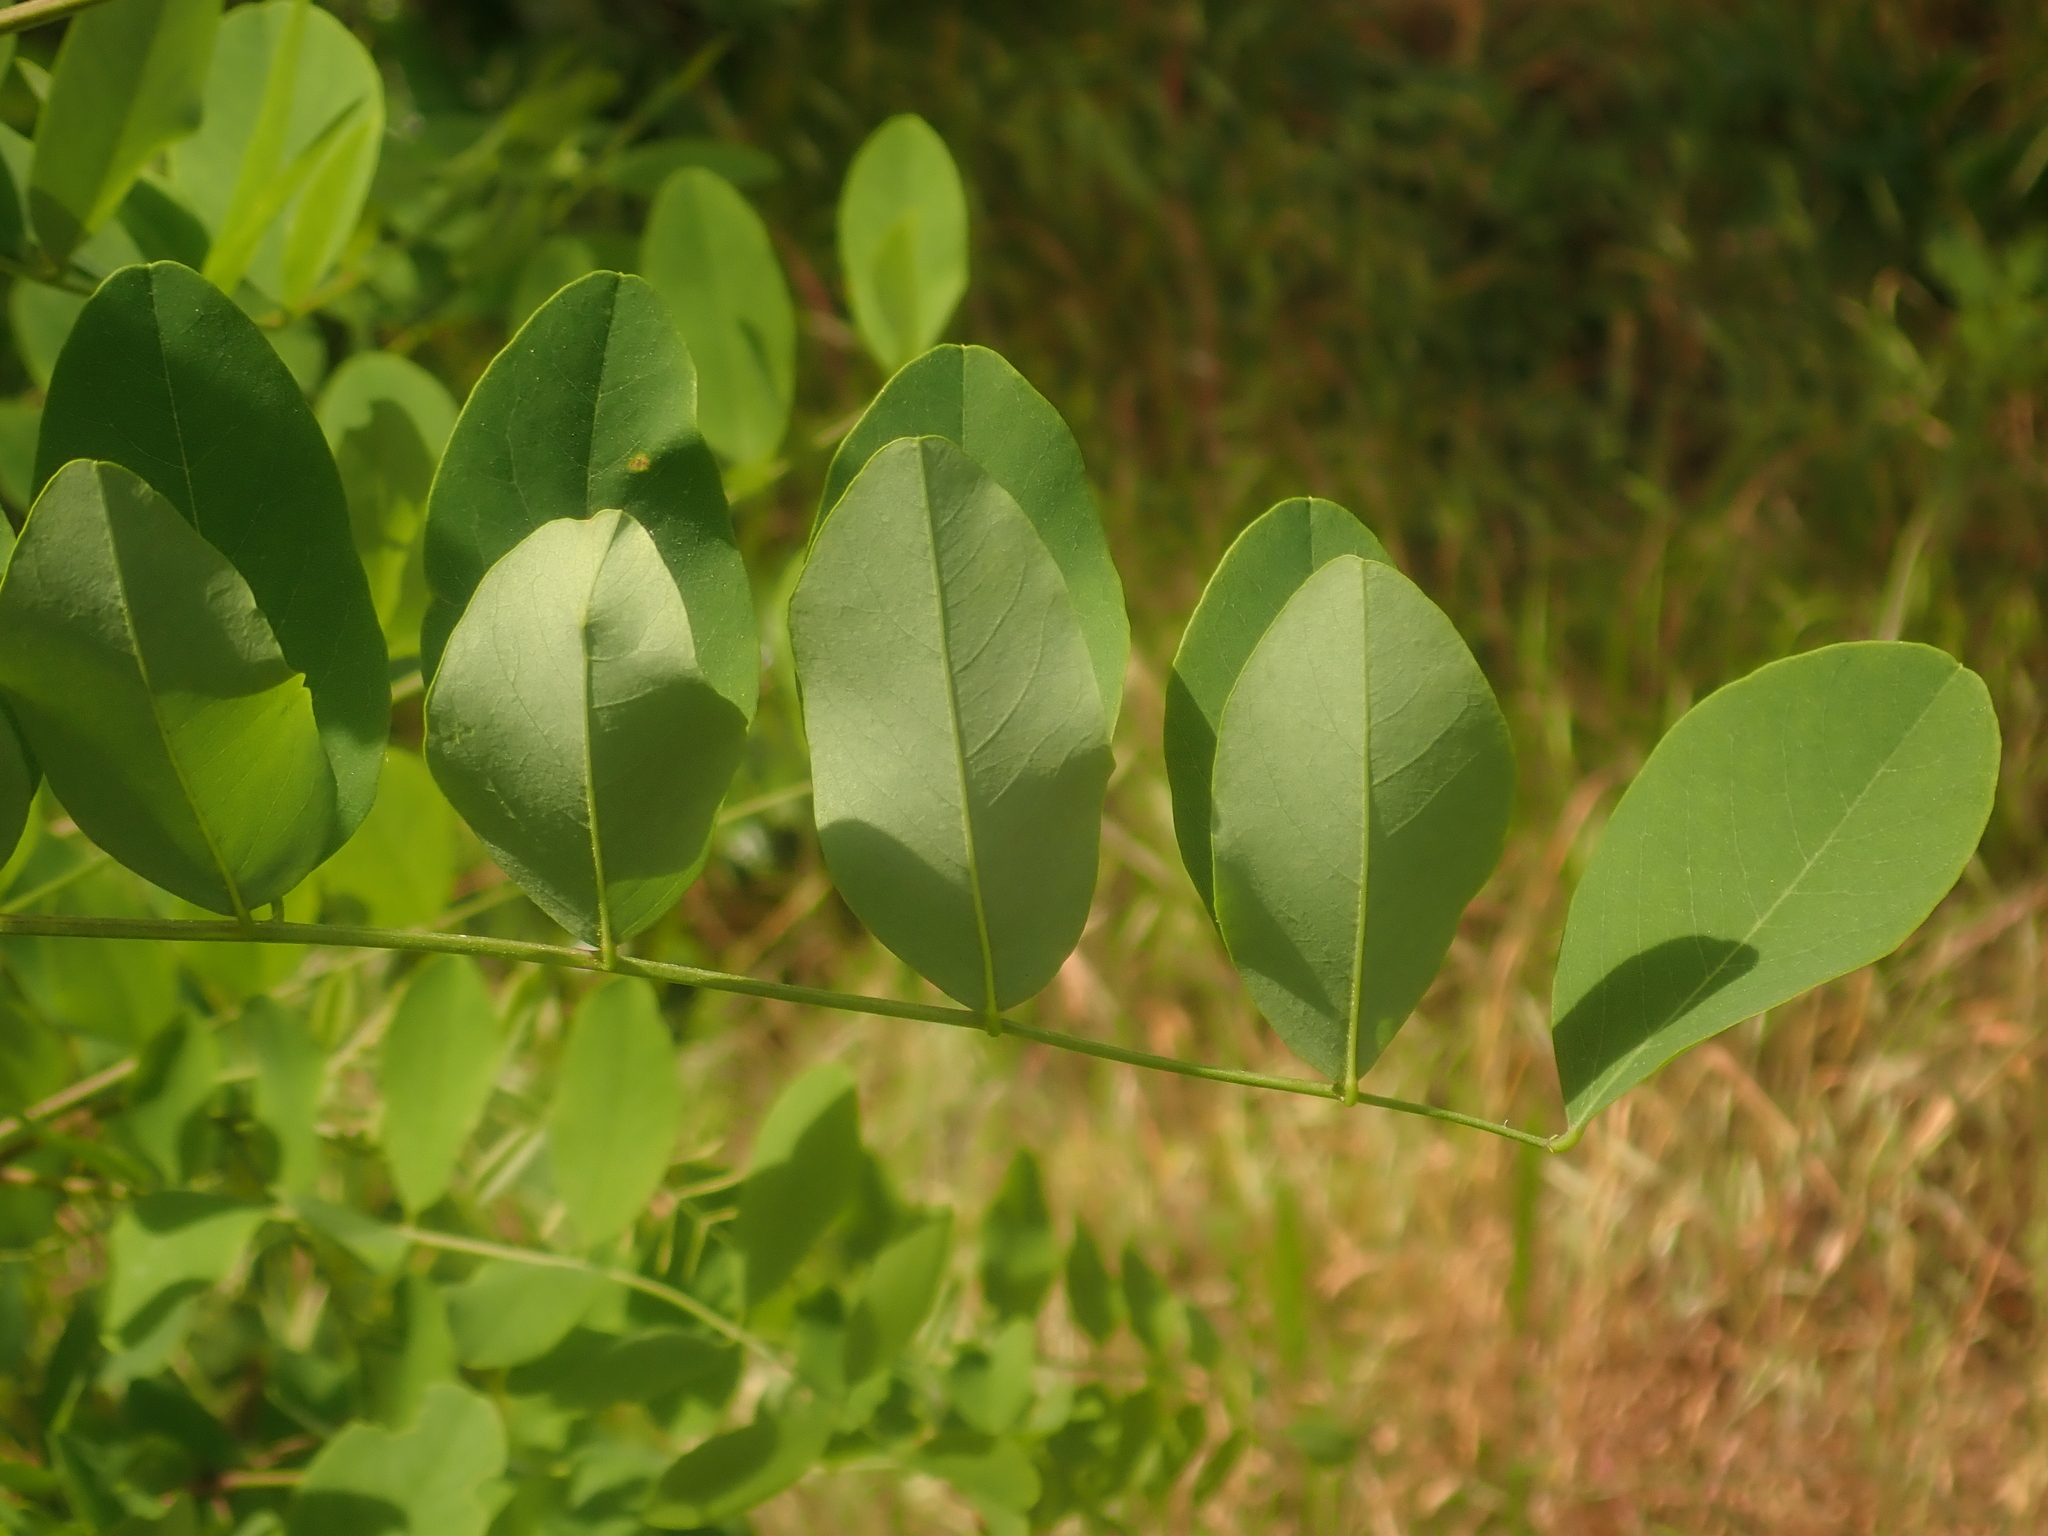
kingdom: Plantae
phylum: Tracheophyta
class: Magnoliopsida
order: Fabales
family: Fabaceae
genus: Robinia
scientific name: Robinia pseudoacacia
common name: Black locust
